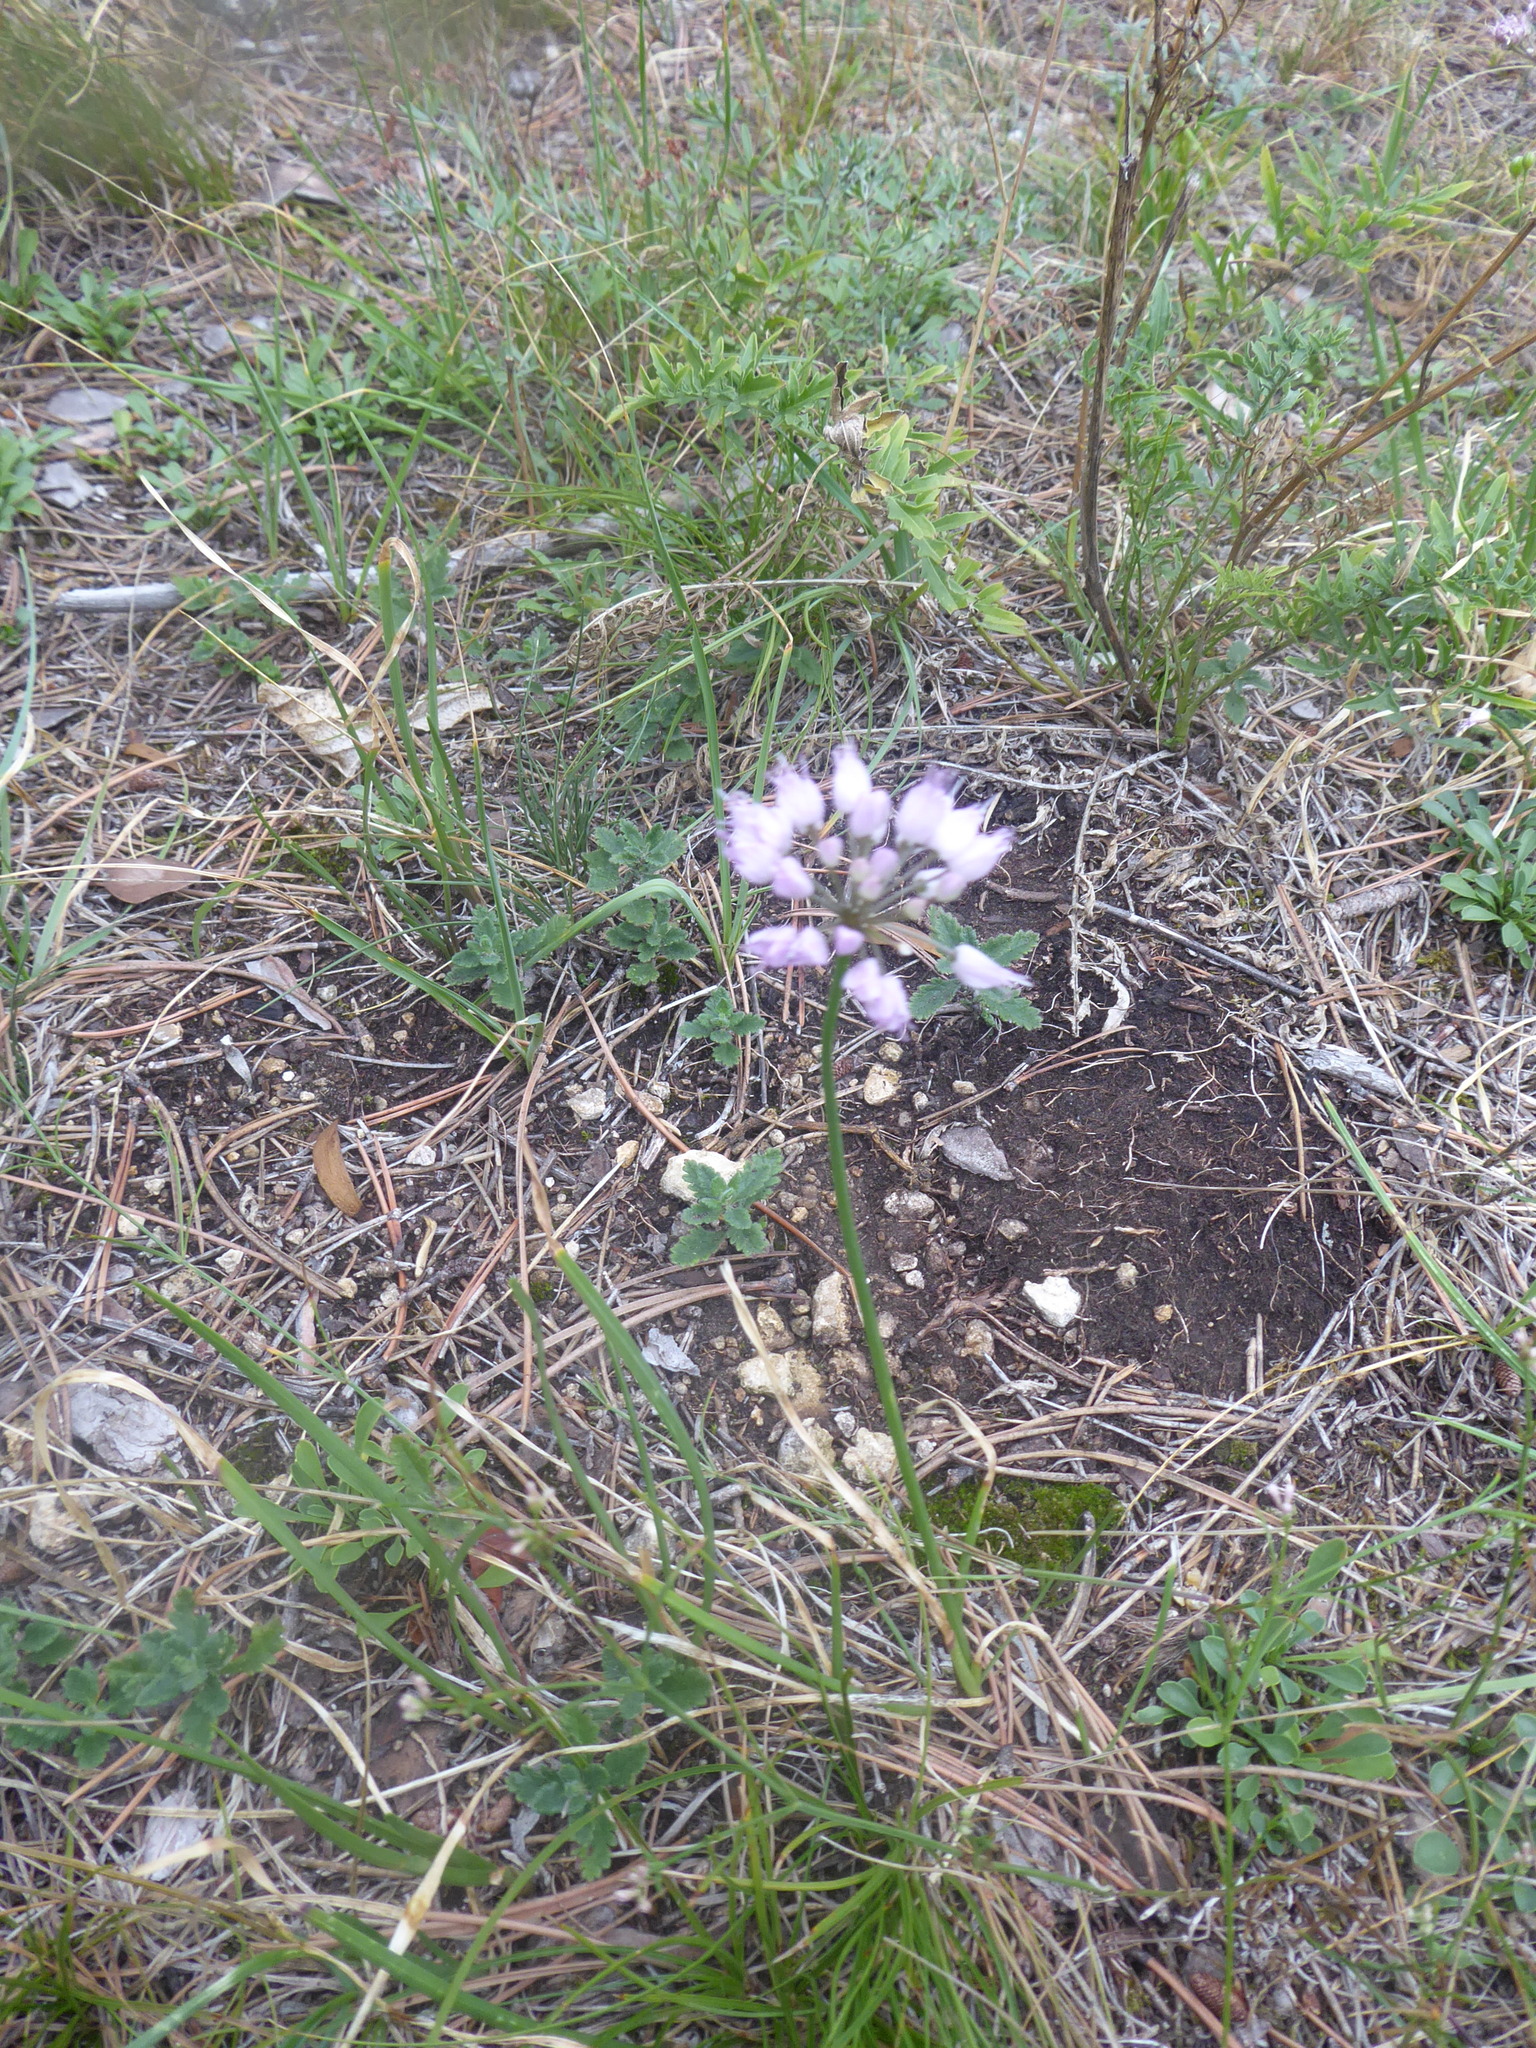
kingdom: Plantae
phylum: Tracheophyta
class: Liliopsida
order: Asparagales
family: Amaryllidaceae
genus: Allium
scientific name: Allium lusitanicum
